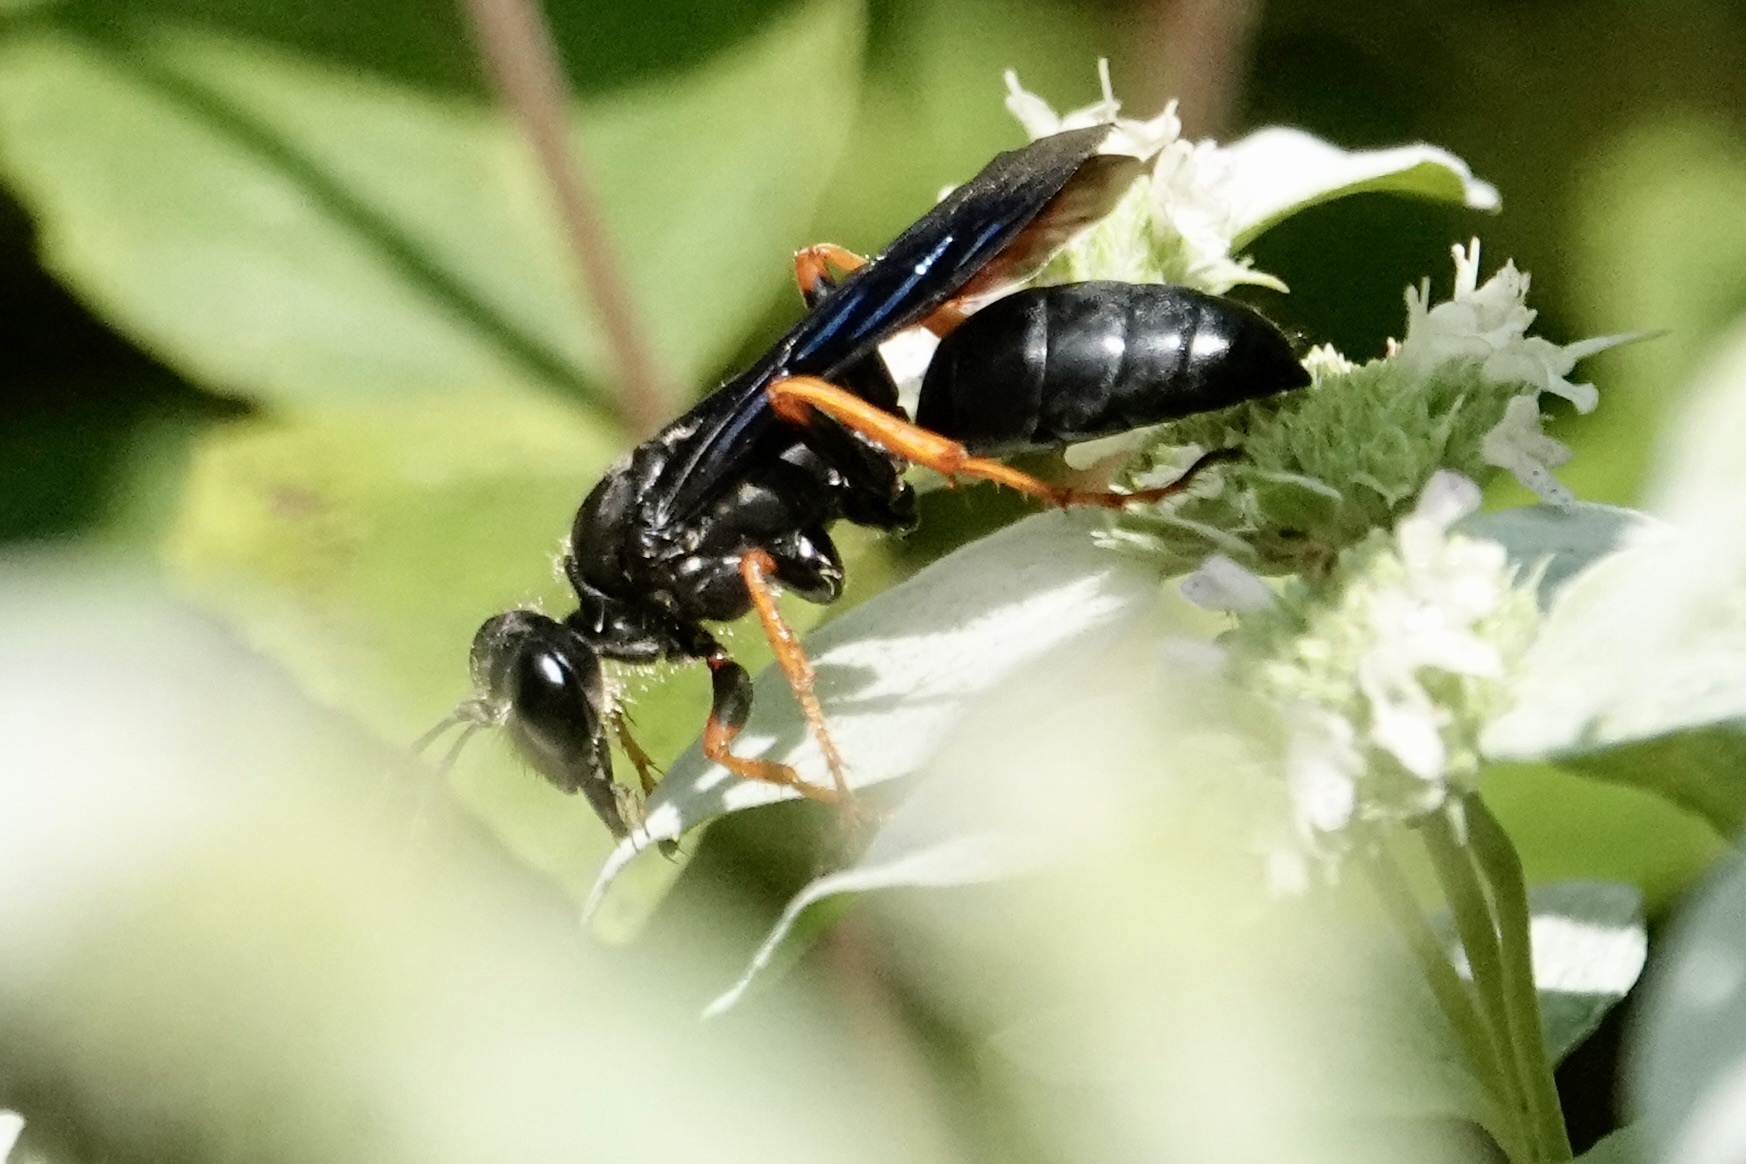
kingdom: Animalia
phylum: Arthropoda
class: Insecta
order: Hymenoptera
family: Sphecidae
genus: Sphex
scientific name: Sphex nudus
